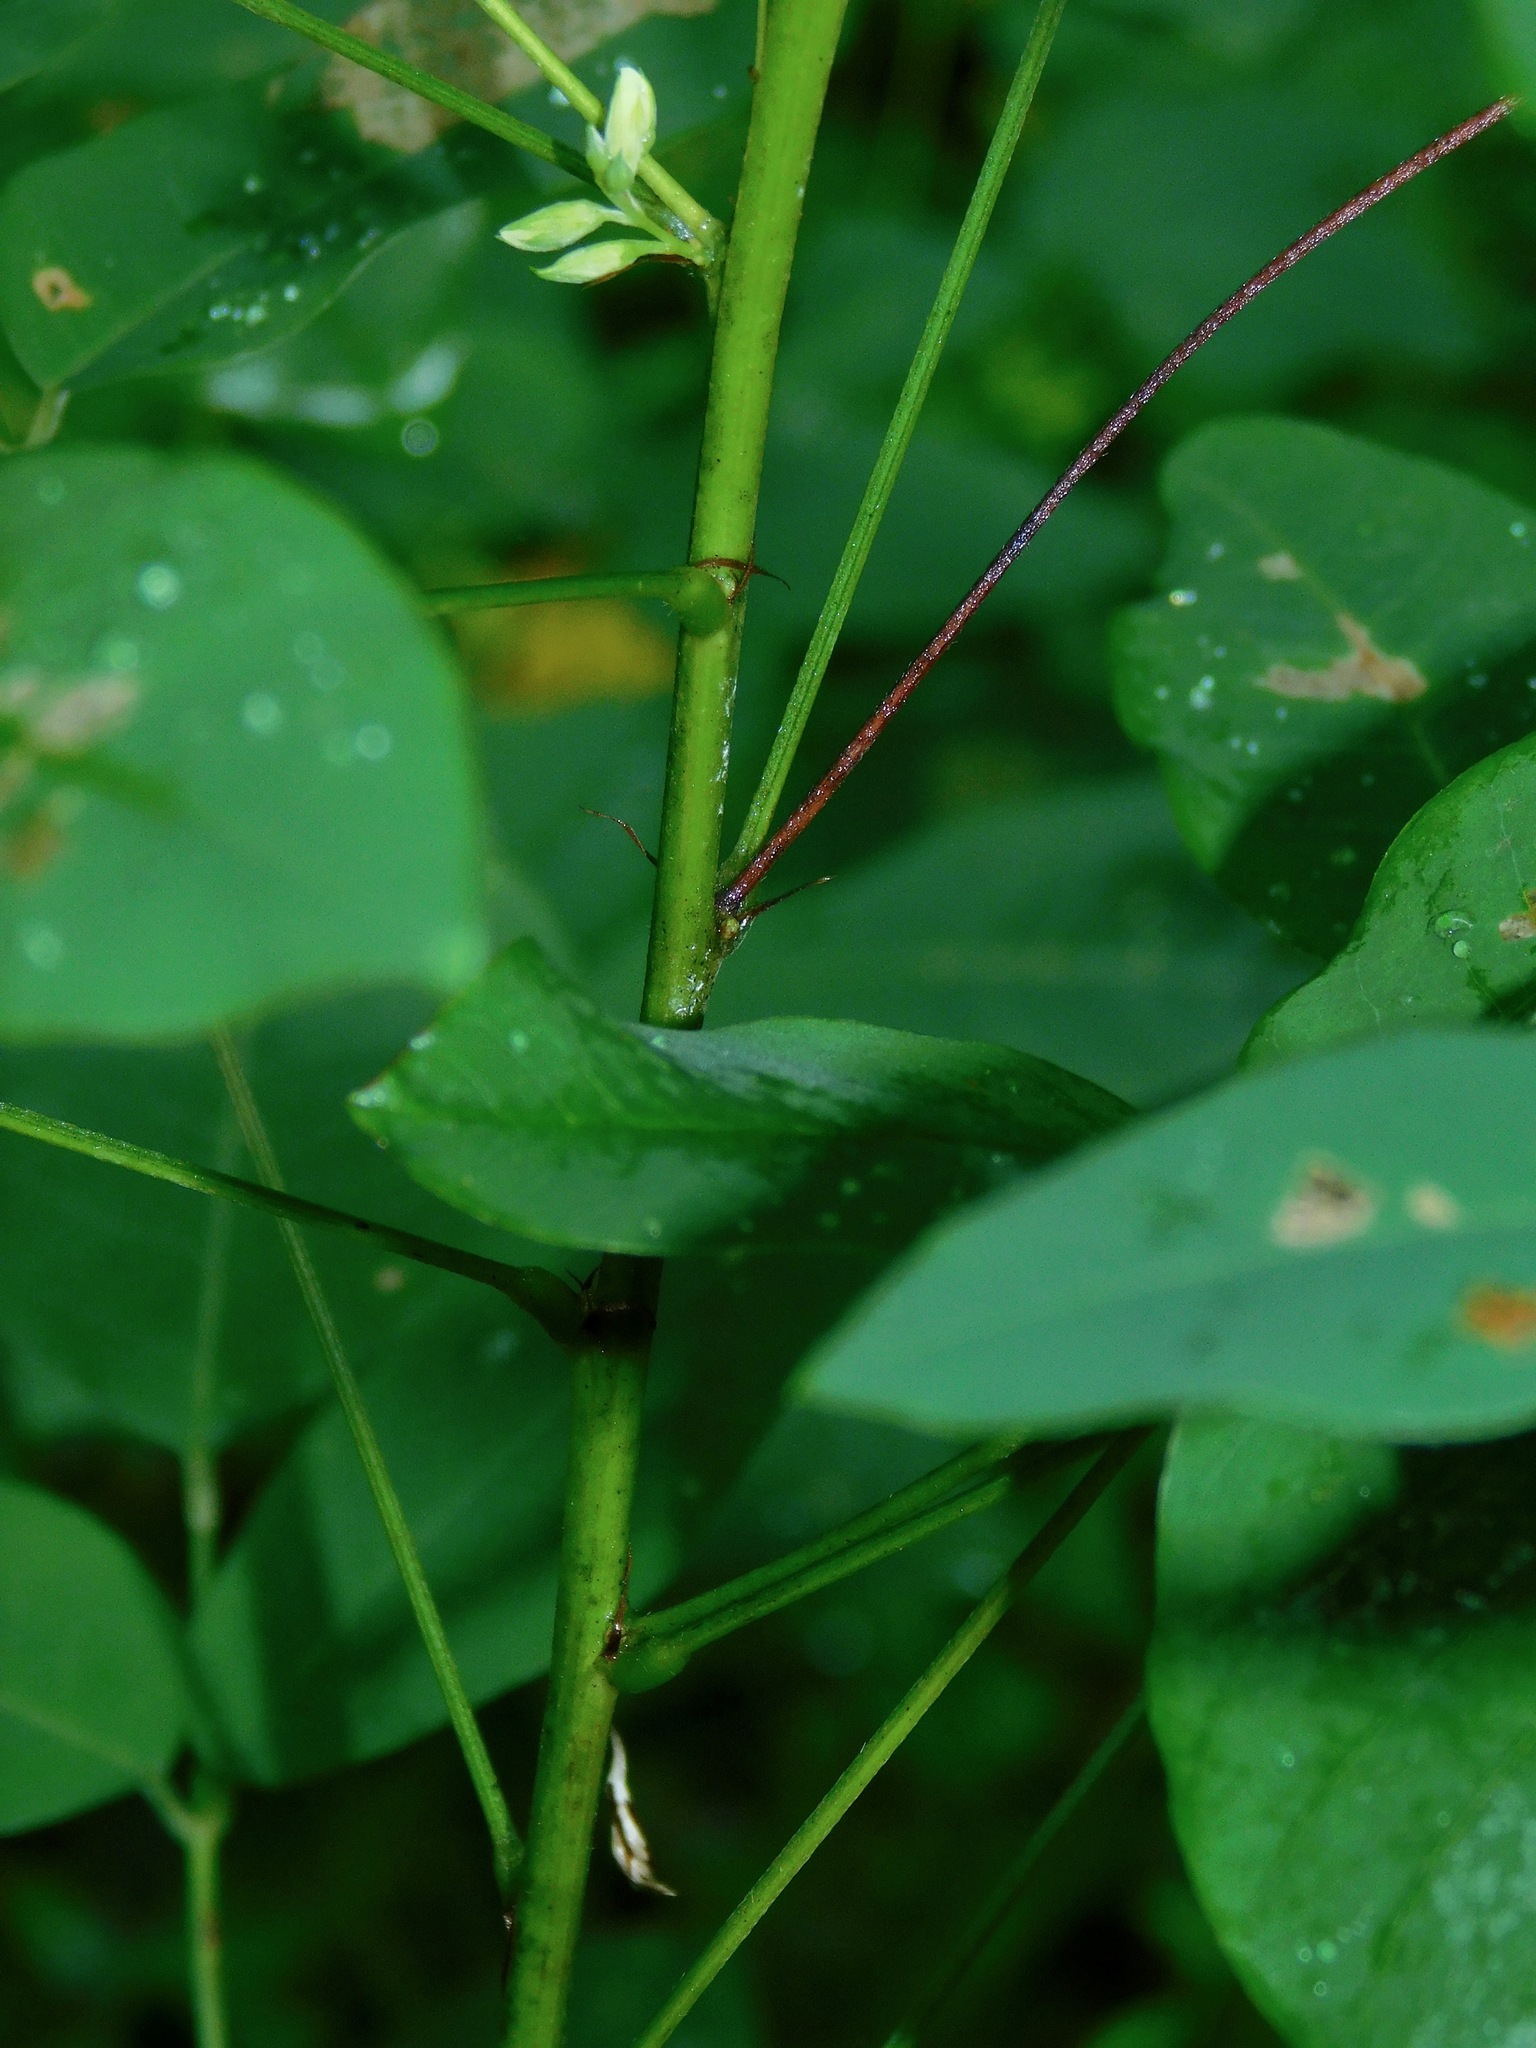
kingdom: Plantae
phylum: Tracheophyta
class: Magnoliopsida
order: Fabales
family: Fabaceae
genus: Lespedeza
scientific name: Lespedeza bicolor
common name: Shrub lespedeza
